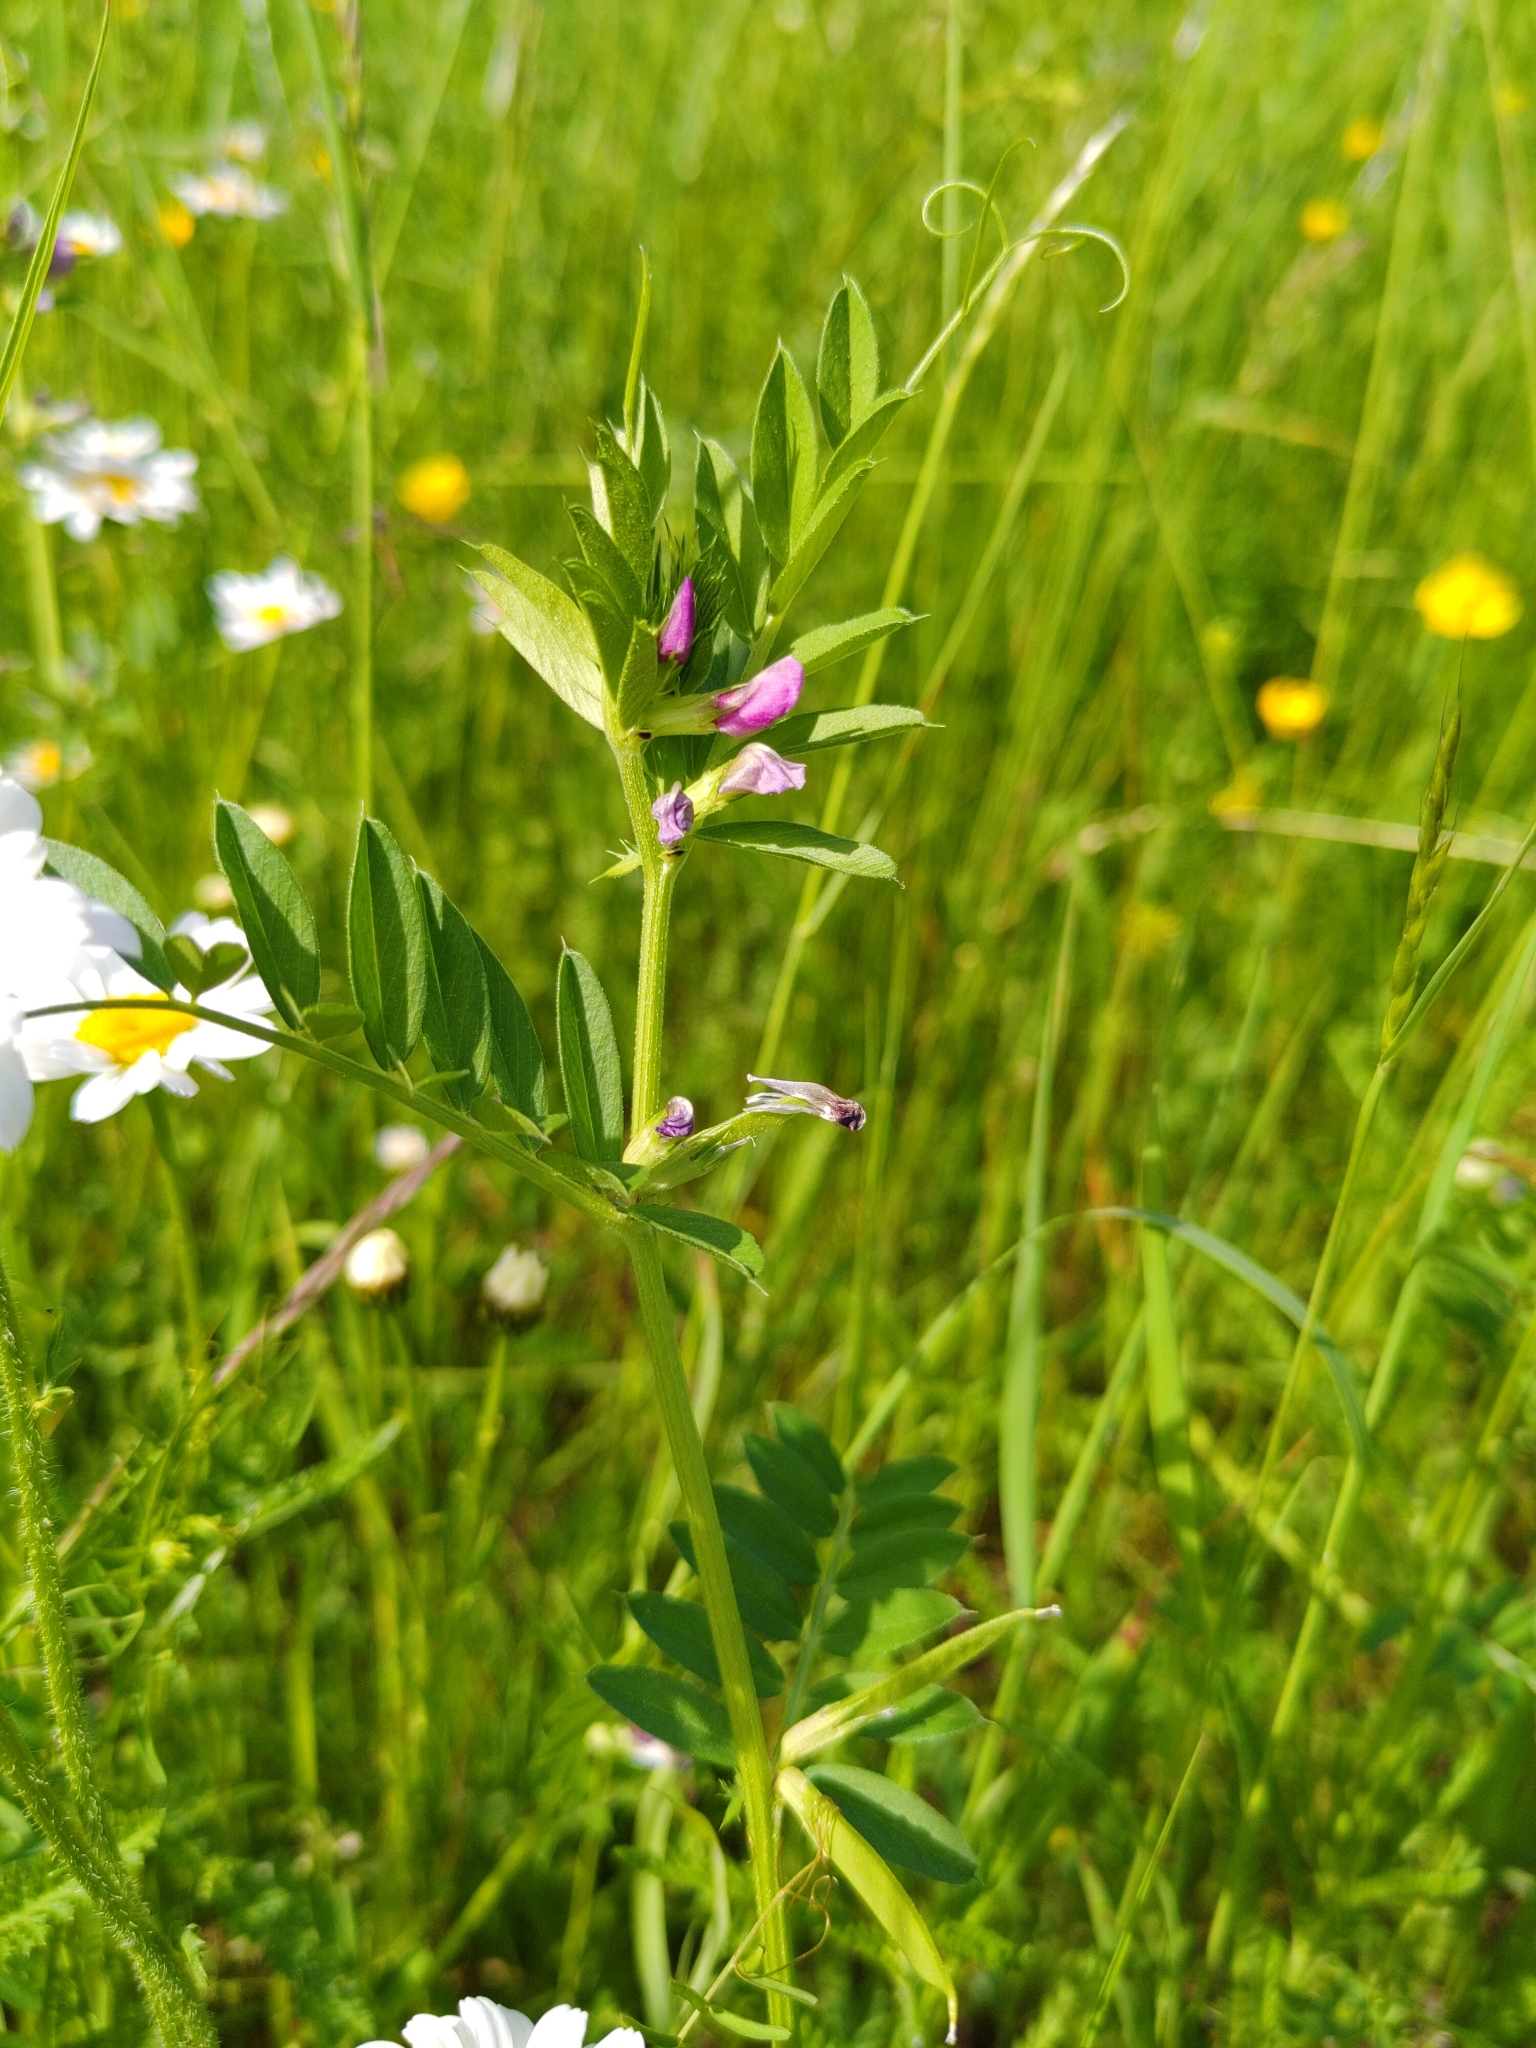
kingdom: Plantae
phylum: Tracheophyta
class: Magnoliopsida
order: Fabales
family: Fabaceae
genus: Vicia
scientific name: Vicia sativa
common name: Garden vetch
